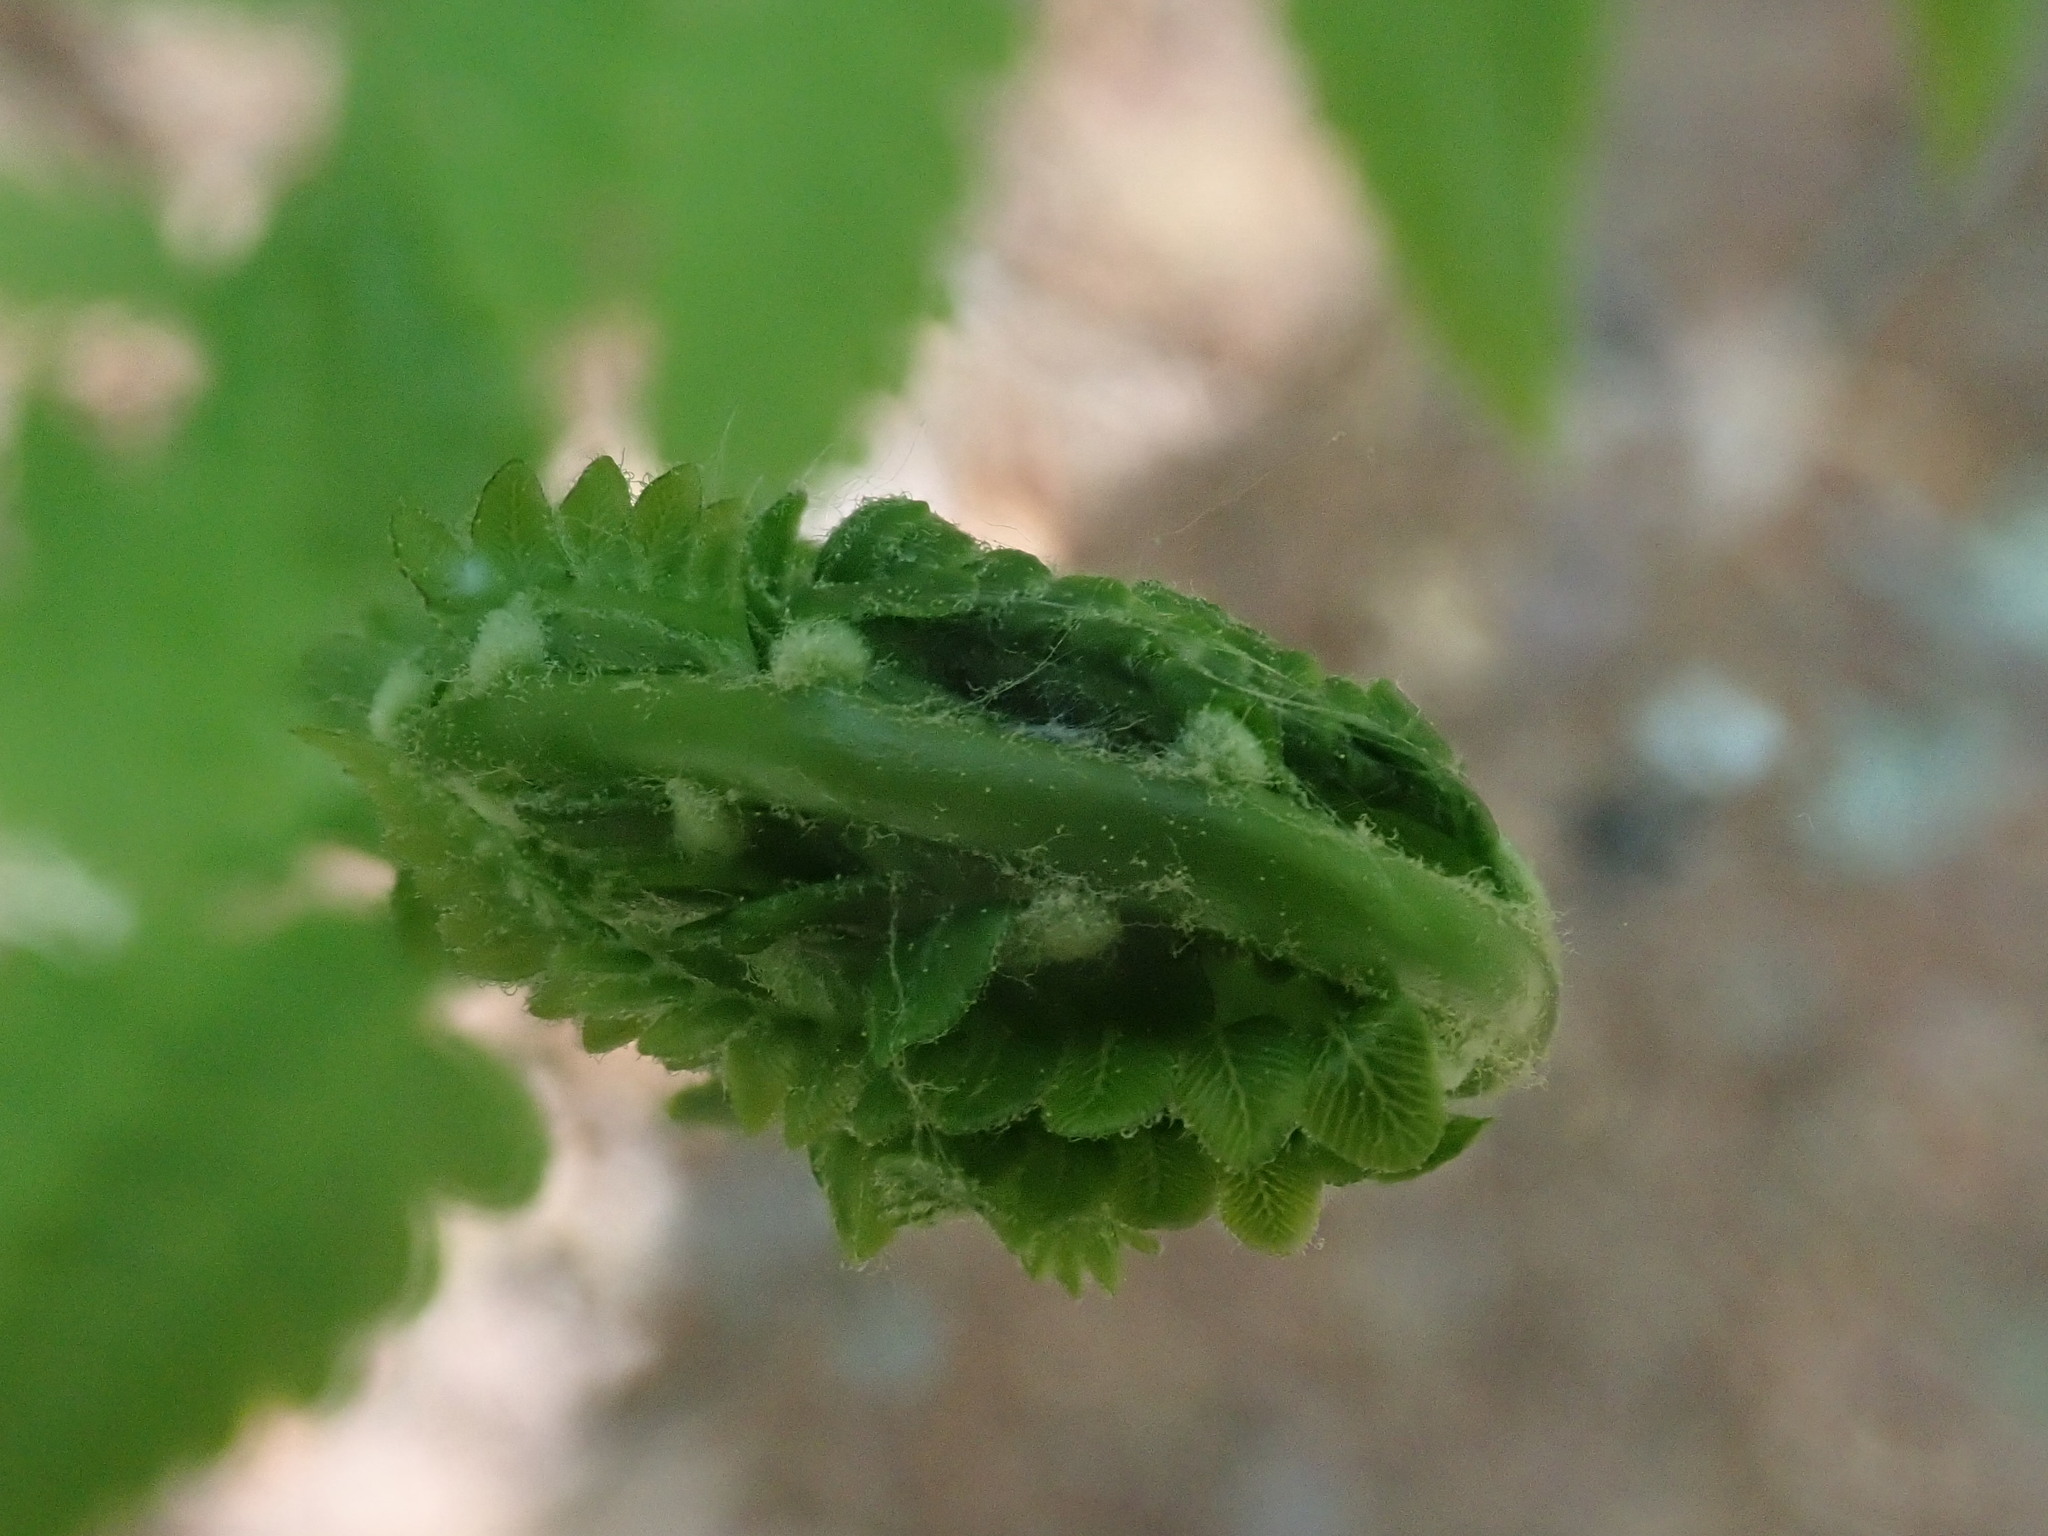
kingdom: Plantae
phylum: Tracheophyta
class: Polypodiopsida
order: Osmundales
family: Osmundaceae
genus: Osmundastrum
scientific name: Osmundastrum cinnamomeum
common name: Cinnamon fern
